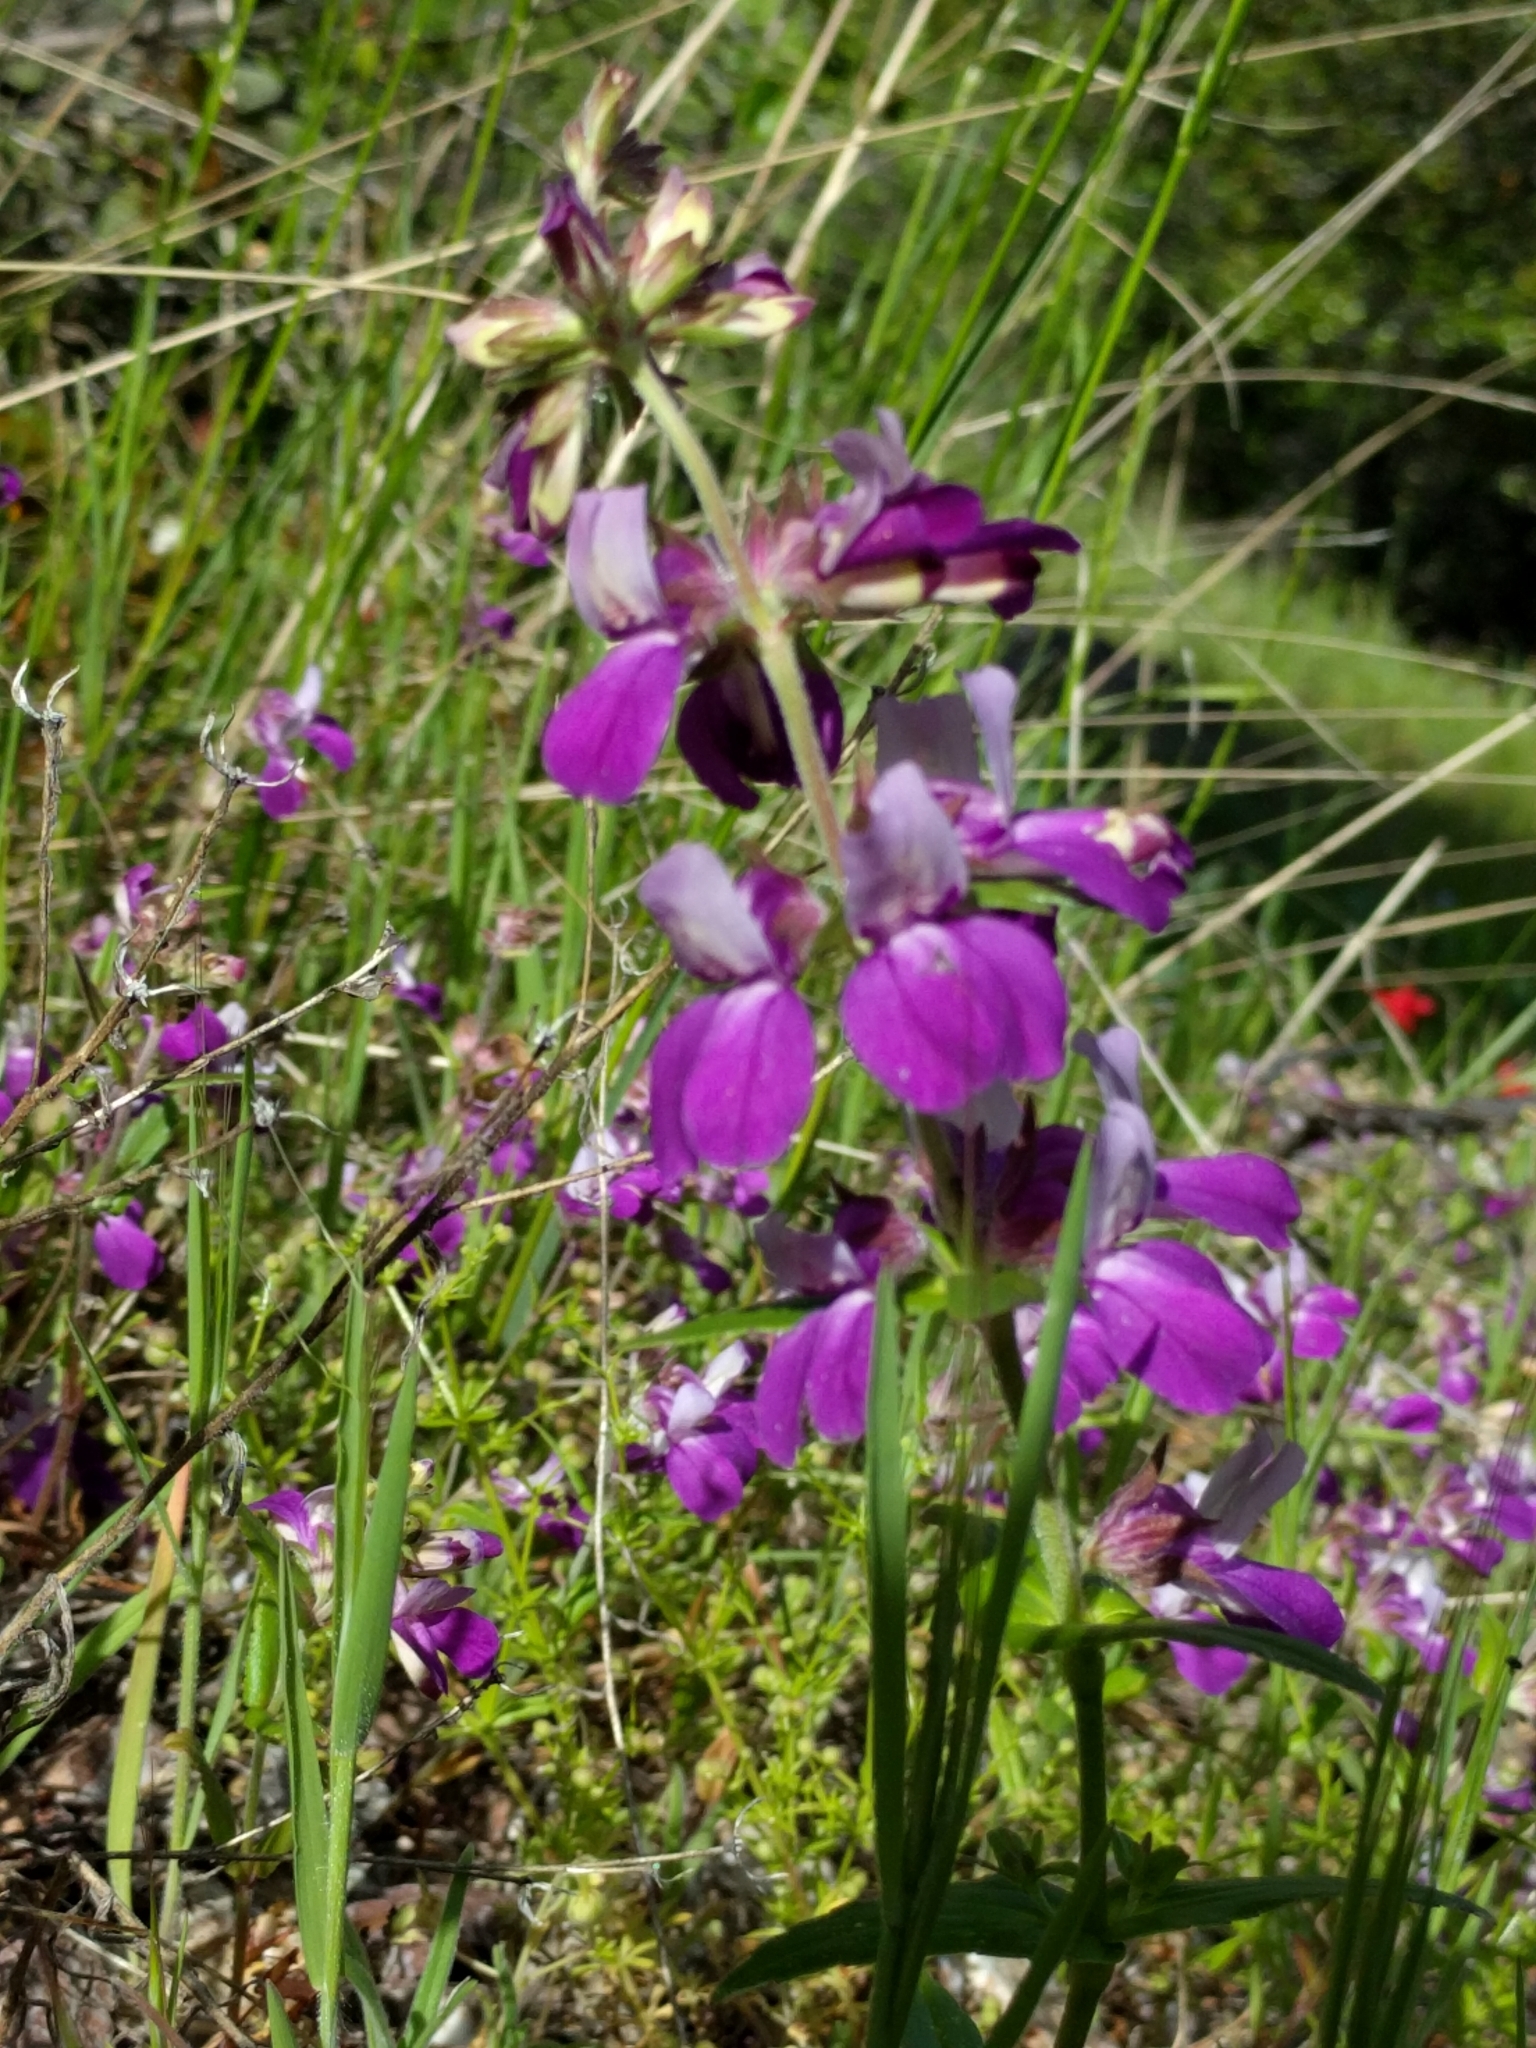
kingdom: Plantae
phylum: Tracheophyta
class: Magnoliopsida
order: Lamiales
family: Plantaginaceae
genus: Collinsia
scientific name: Collinsia heterophylla
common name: Chinese-houses
